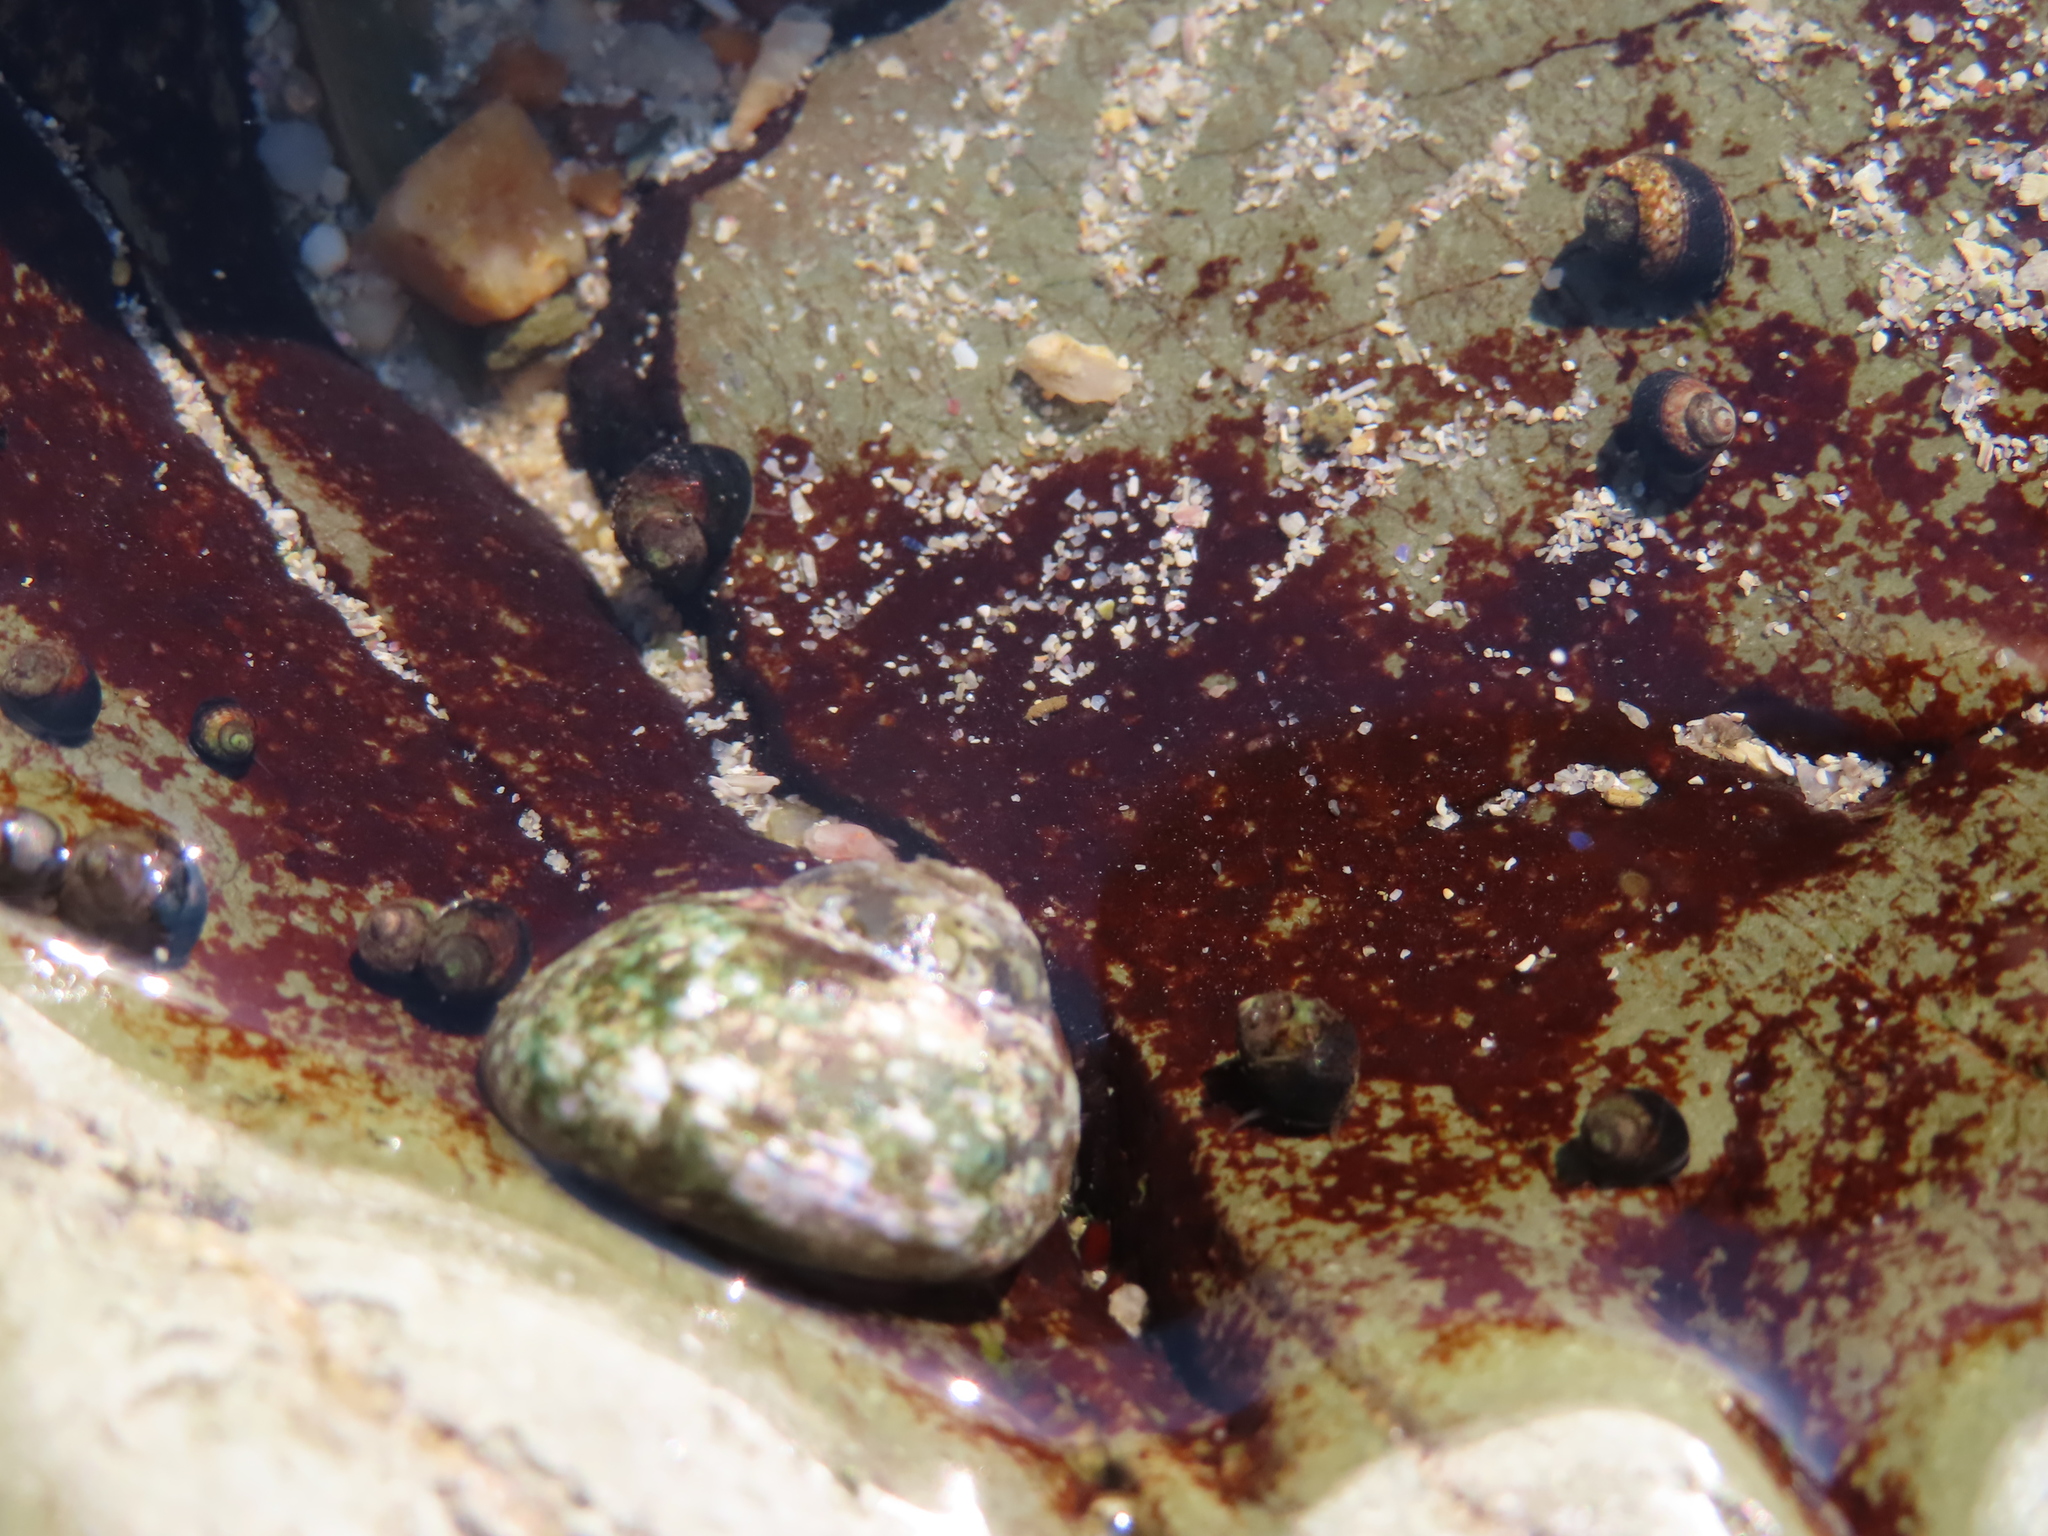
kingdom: Animalia
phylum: Mollusca
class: Gastropoda
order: Trochida
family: Trochidae
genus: Gibbula
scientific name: Gibbula cicer
